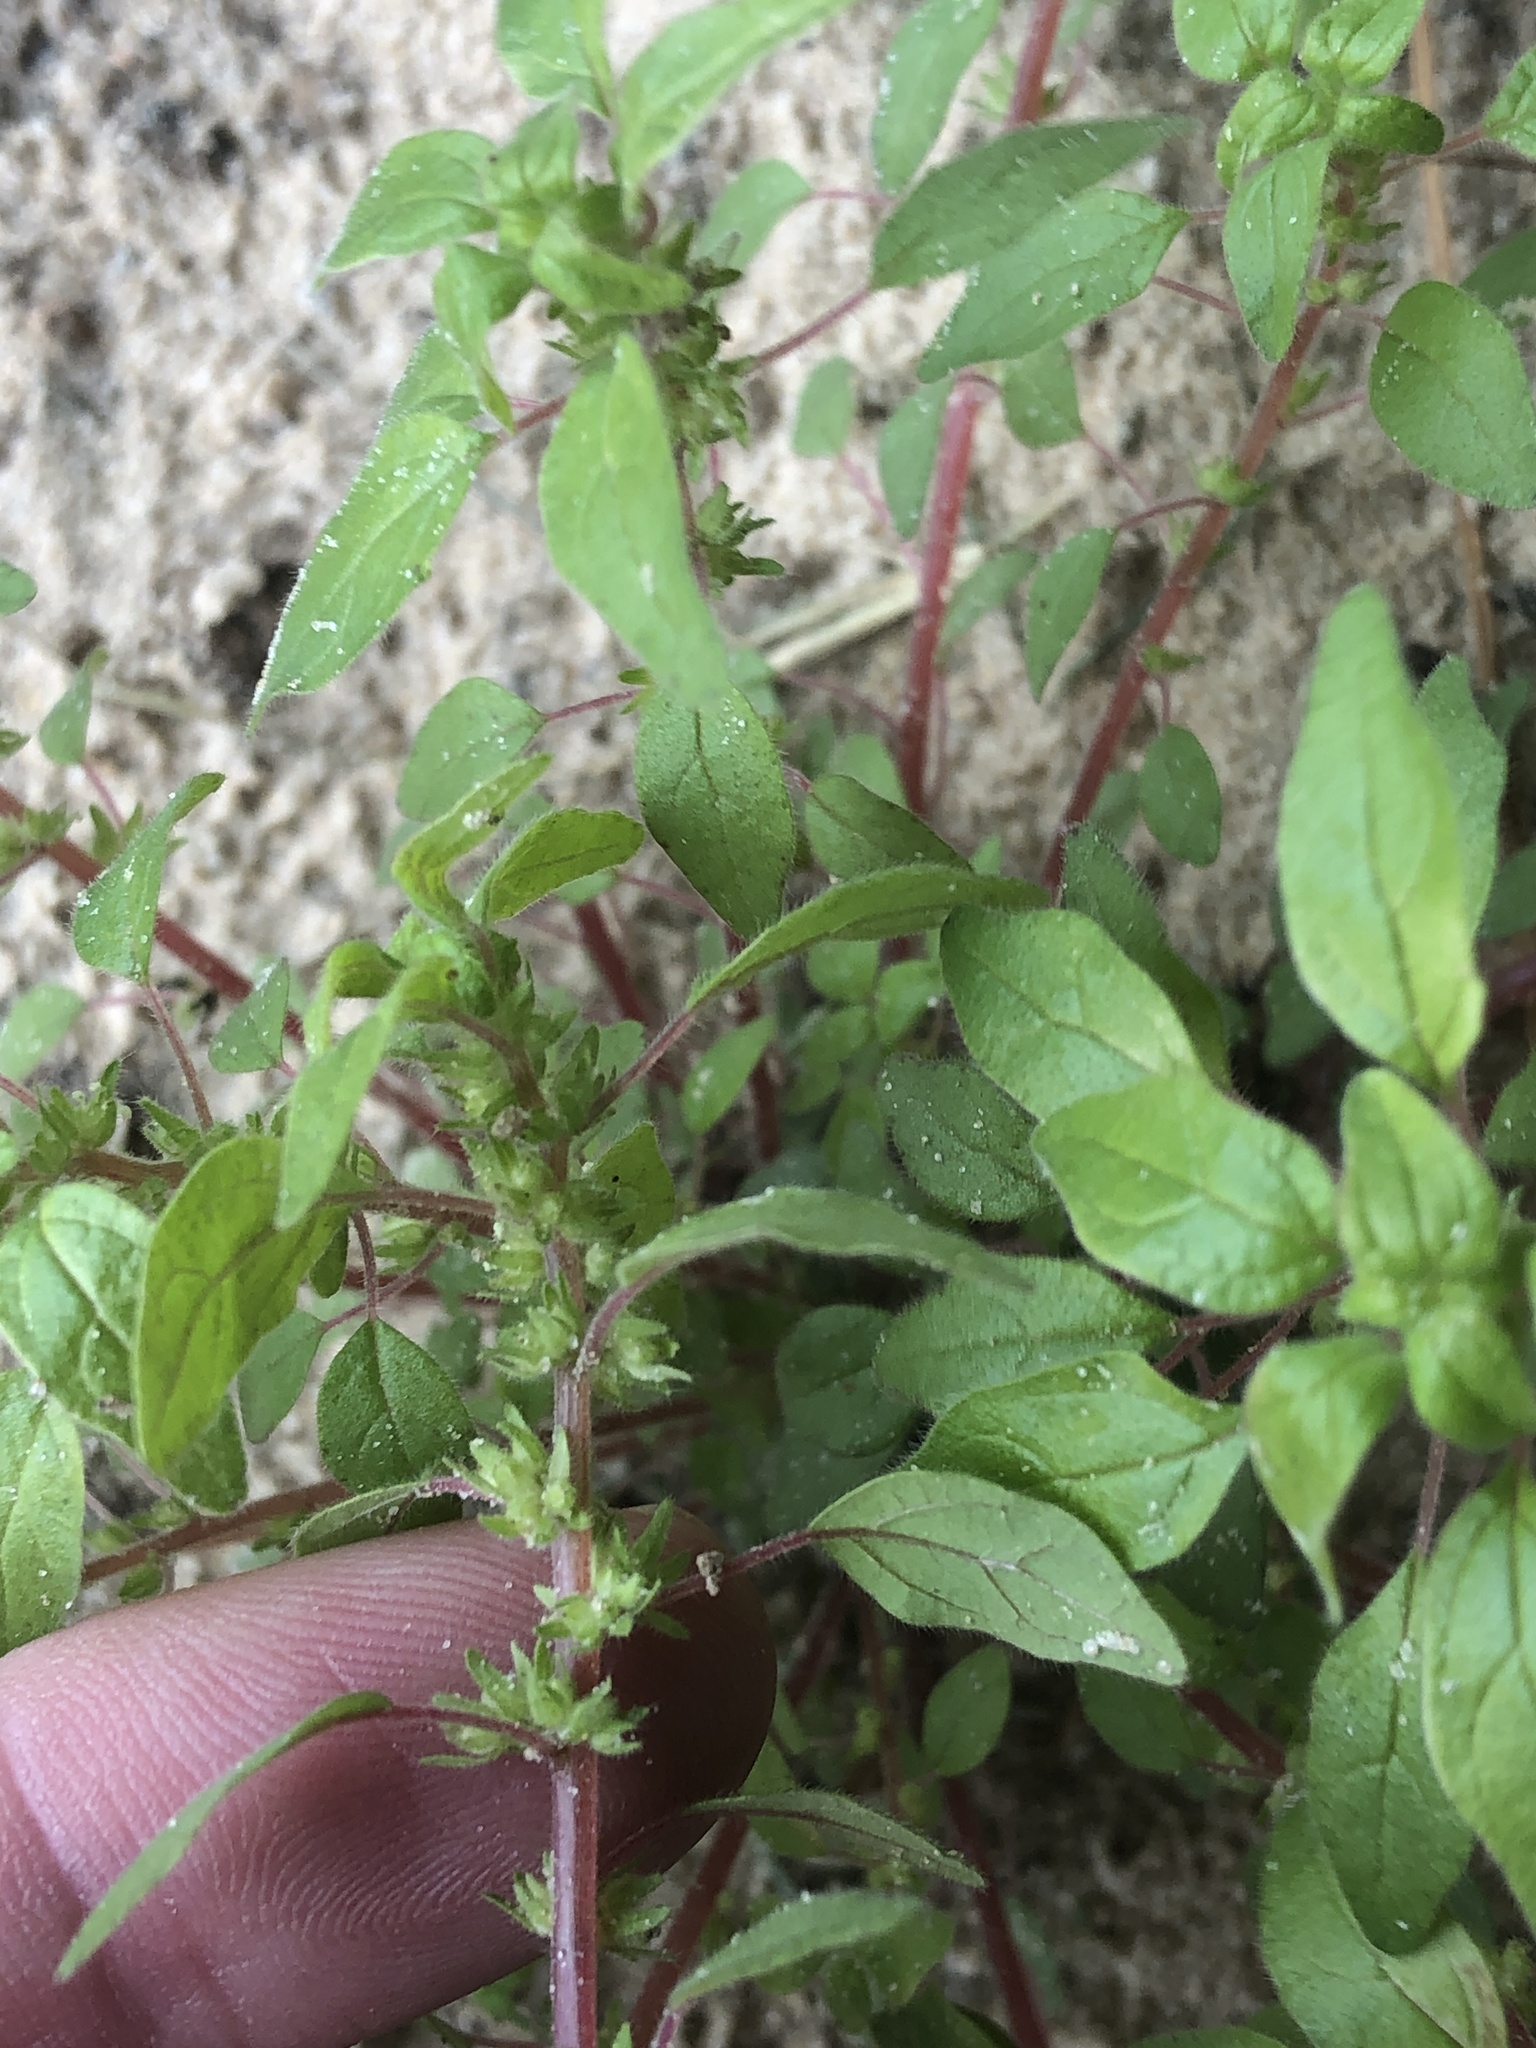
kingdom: Plantae
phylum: Tracheophyta
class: Magnoliopsida
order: Rosales
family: Urticaceae
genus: Parietaria
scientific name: Parietaria pensylvanica
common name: Pennsylvania pellitory
